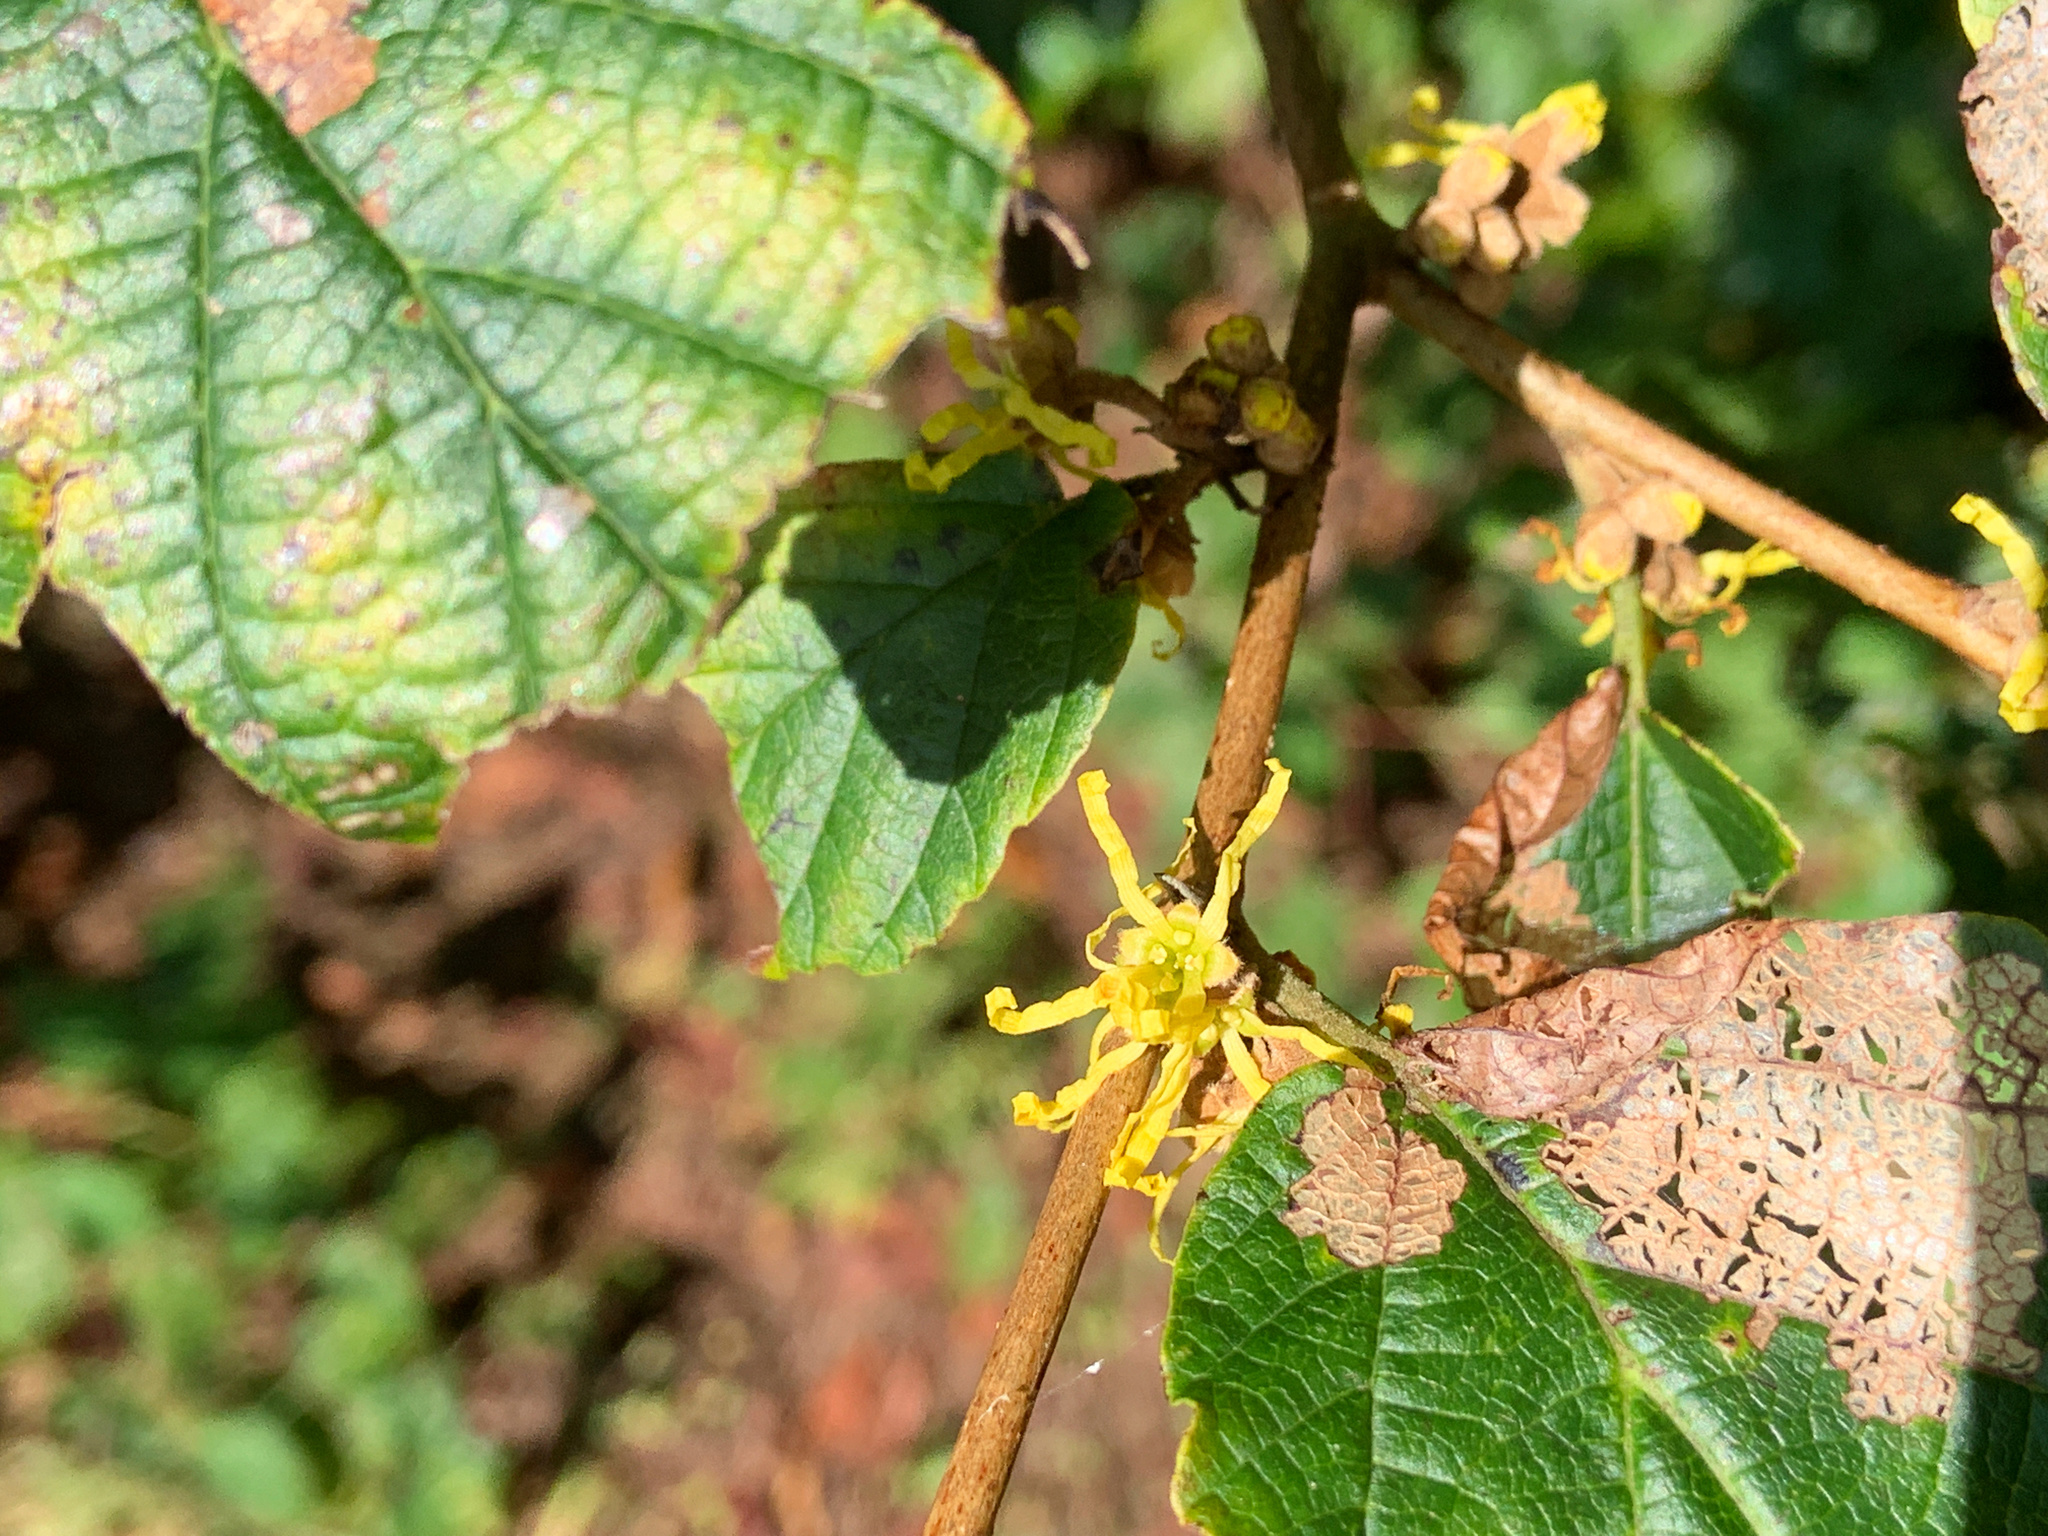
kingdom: Plantae
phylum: Tracheophyta
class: Magnoliopsida
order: Saxifragales
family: Hamamelidaceae
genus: Hamamelis
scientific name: Hamamelis virginiana
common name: Witch-hazel
